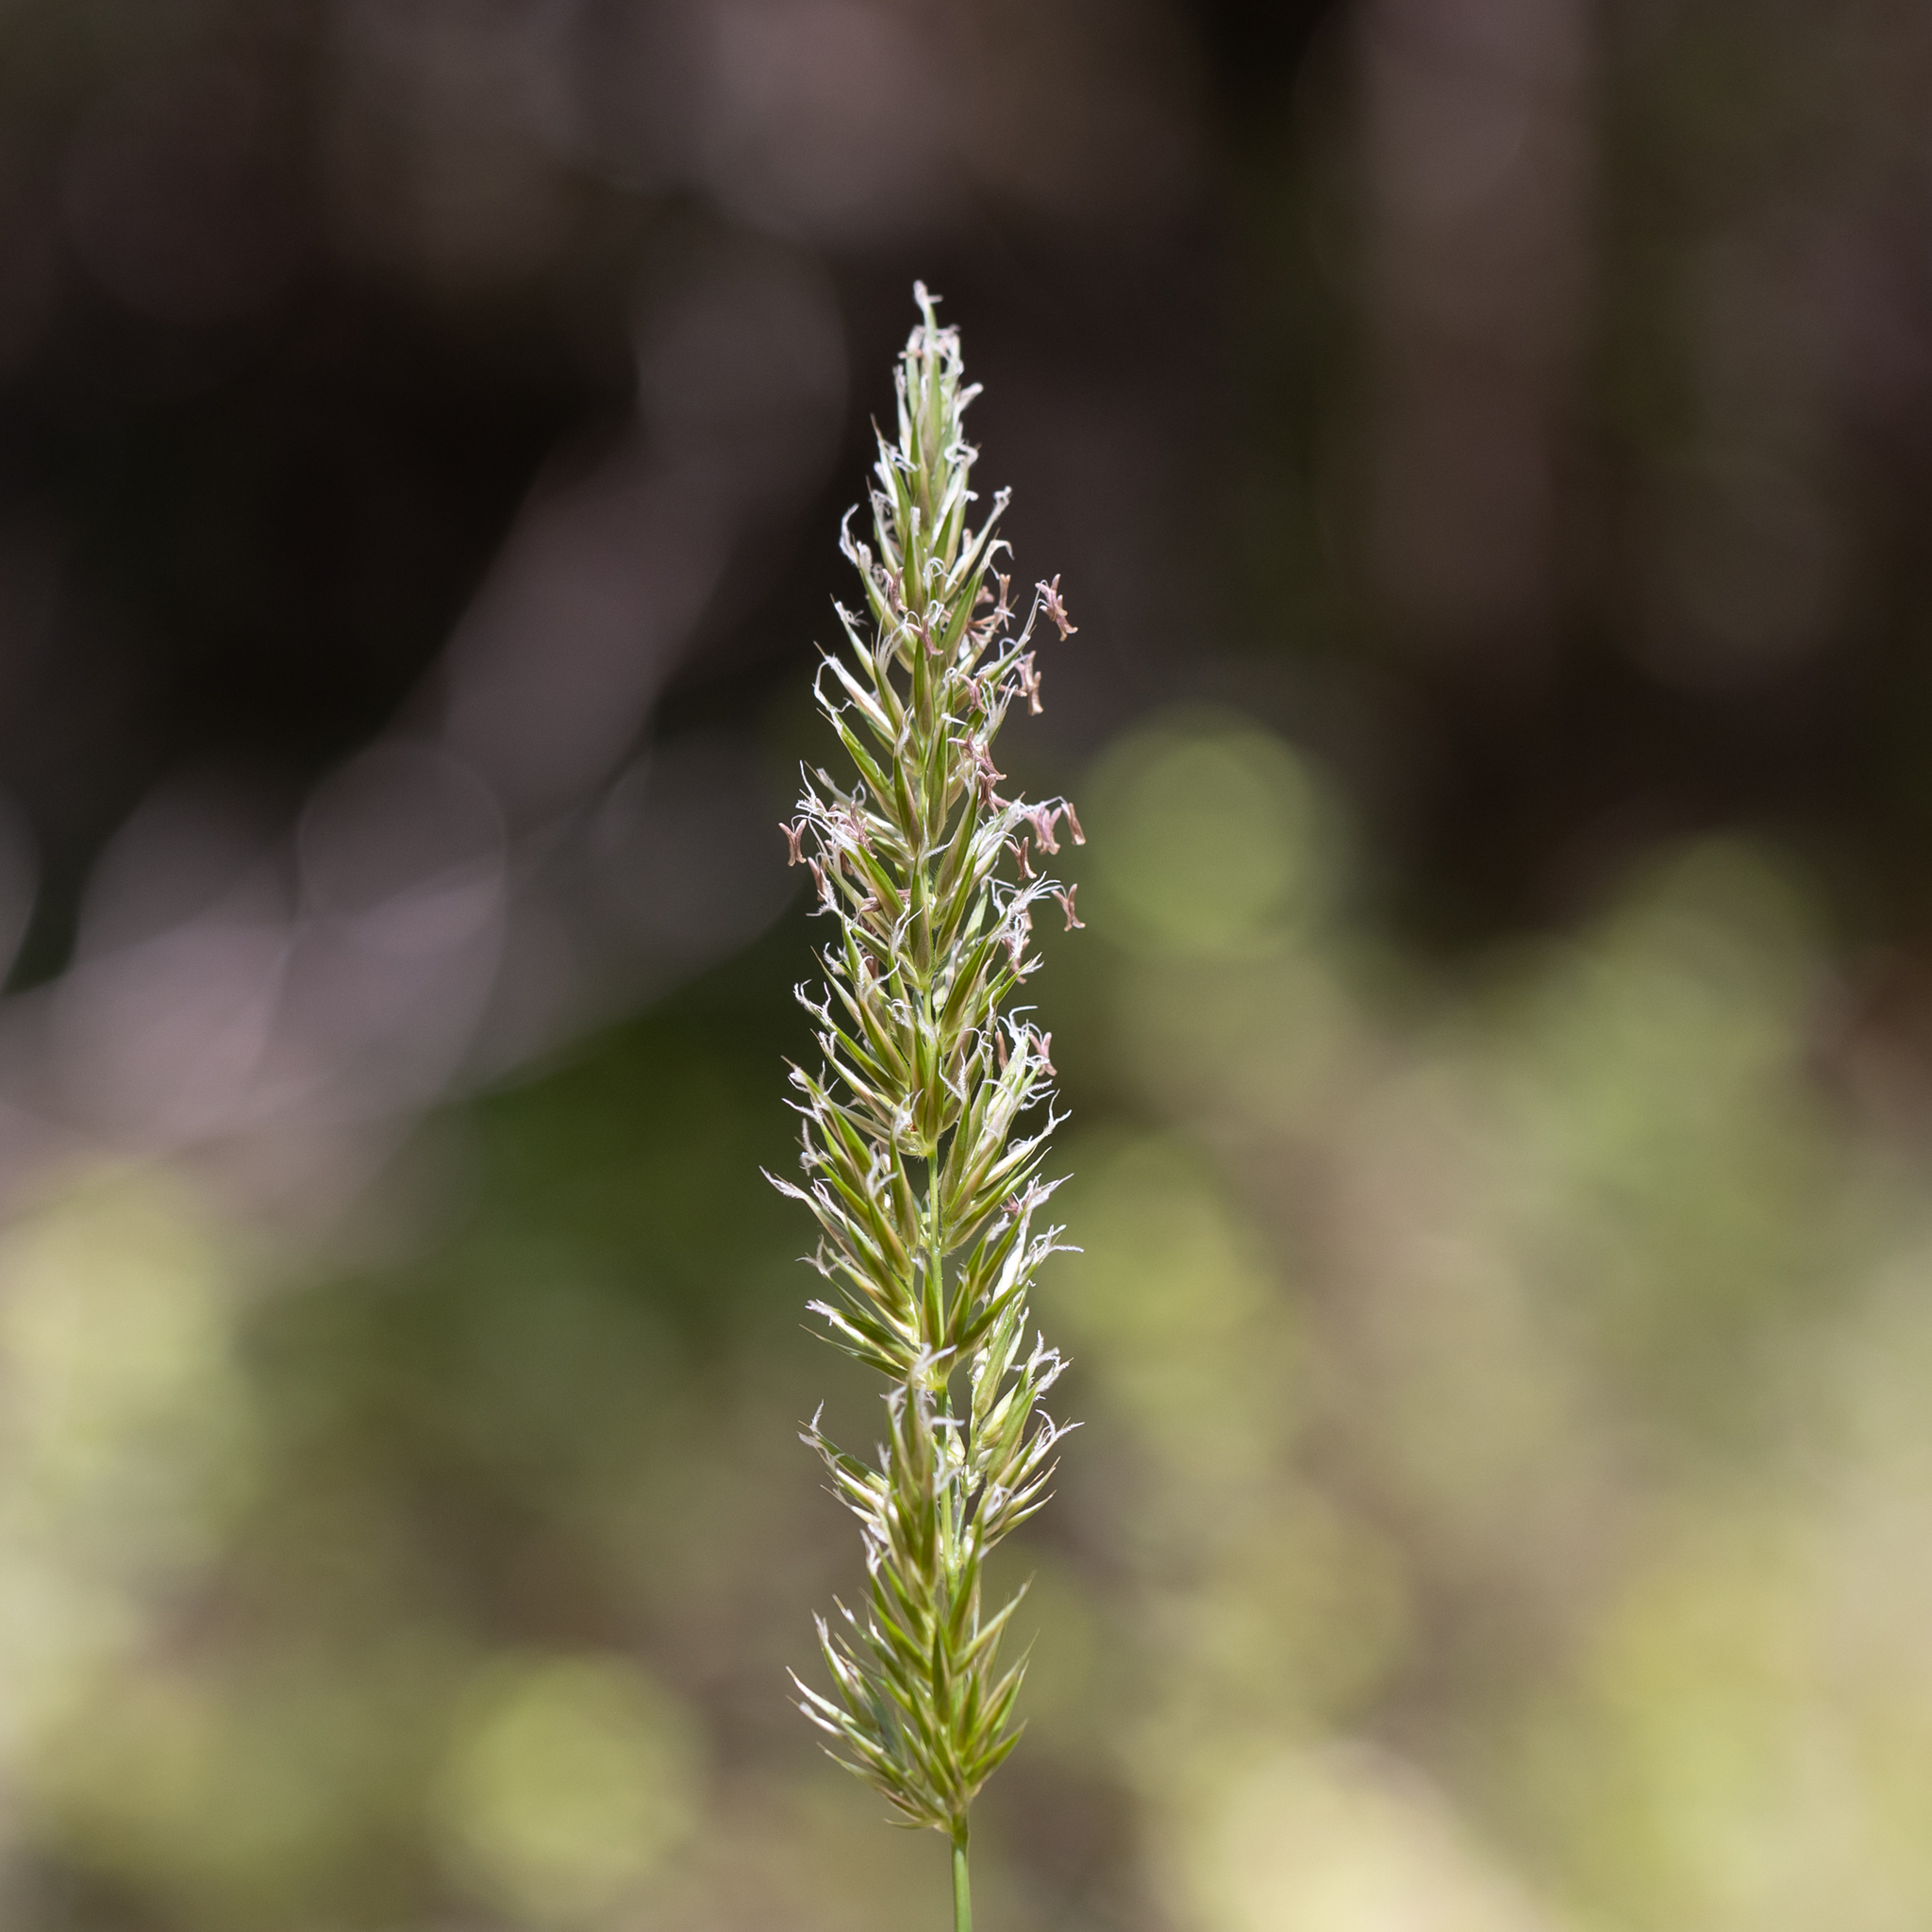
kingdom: Plantae
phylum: Tracheophyta
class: Liliopsida
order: Poales
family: Poaceae
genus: Anthoxanthum
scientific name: Anthoxanthum odoratum
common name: Sweet vernalgrass
